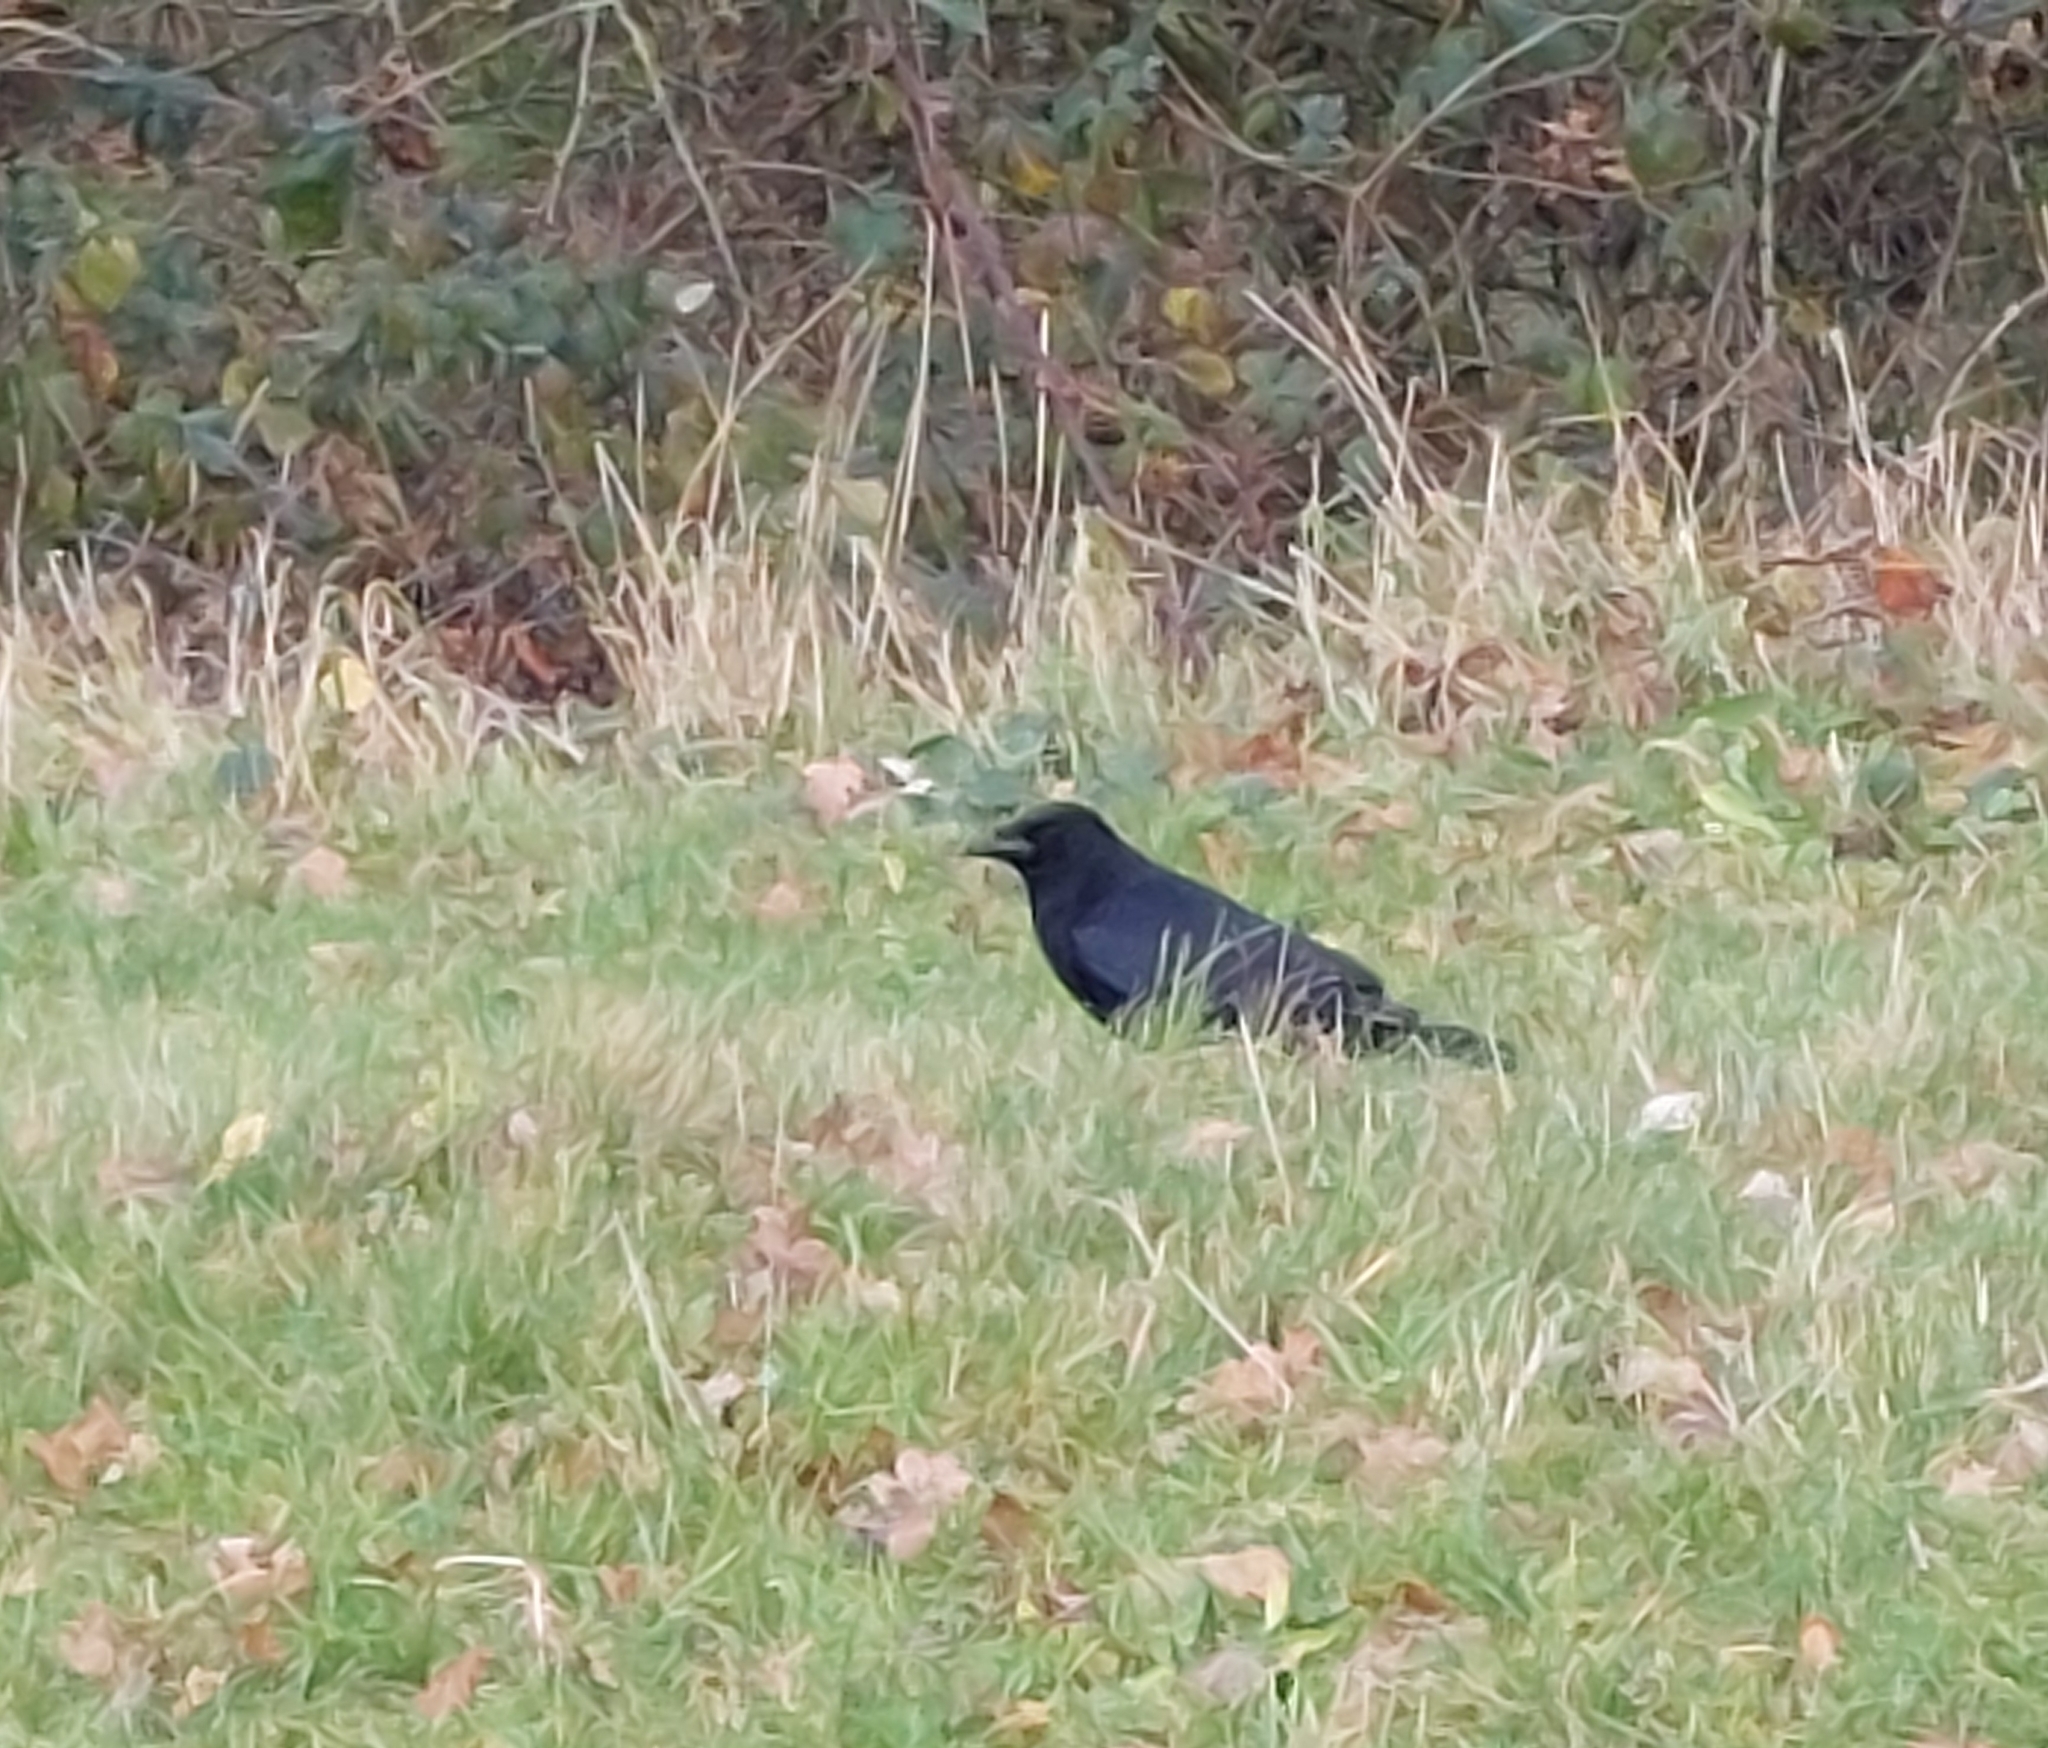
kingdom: Animalia
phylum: Chordata
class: Aves
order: Passeriformes
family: Corvidae
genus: Corvus
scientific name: Corvus corone
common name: Carrion crow
